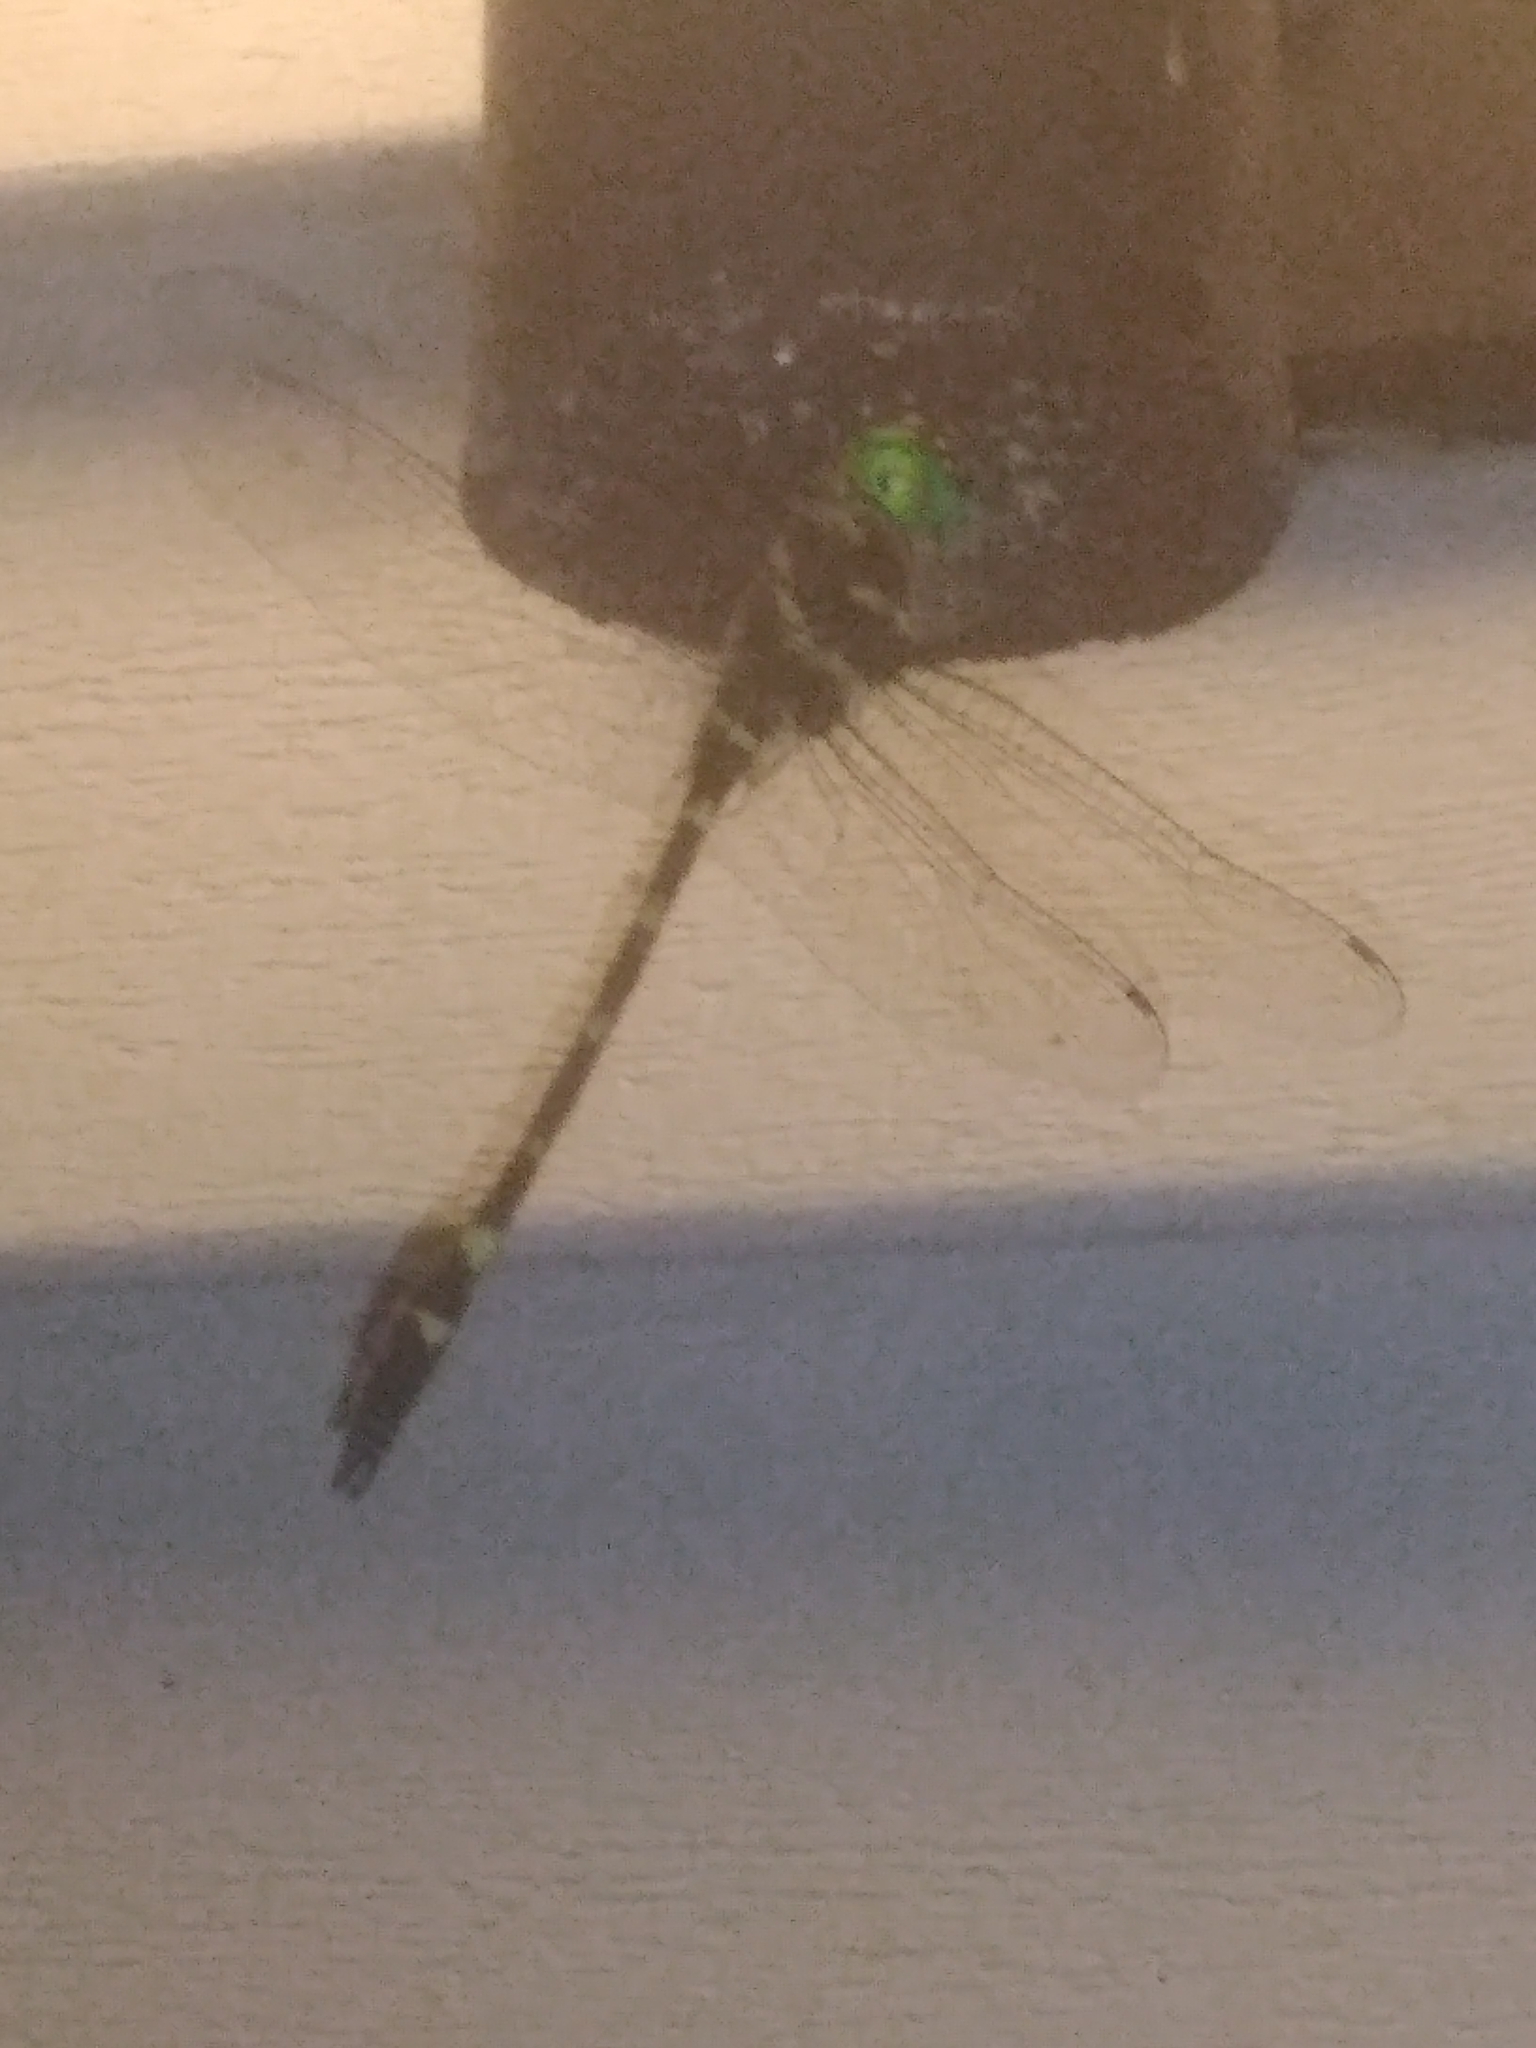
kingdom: Animalia
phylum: Arthropoda
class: Insecta
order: Odonata
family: Macromiidae
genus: Macromia
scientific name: Macromia illinoiensis
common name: Swift river cruiser
